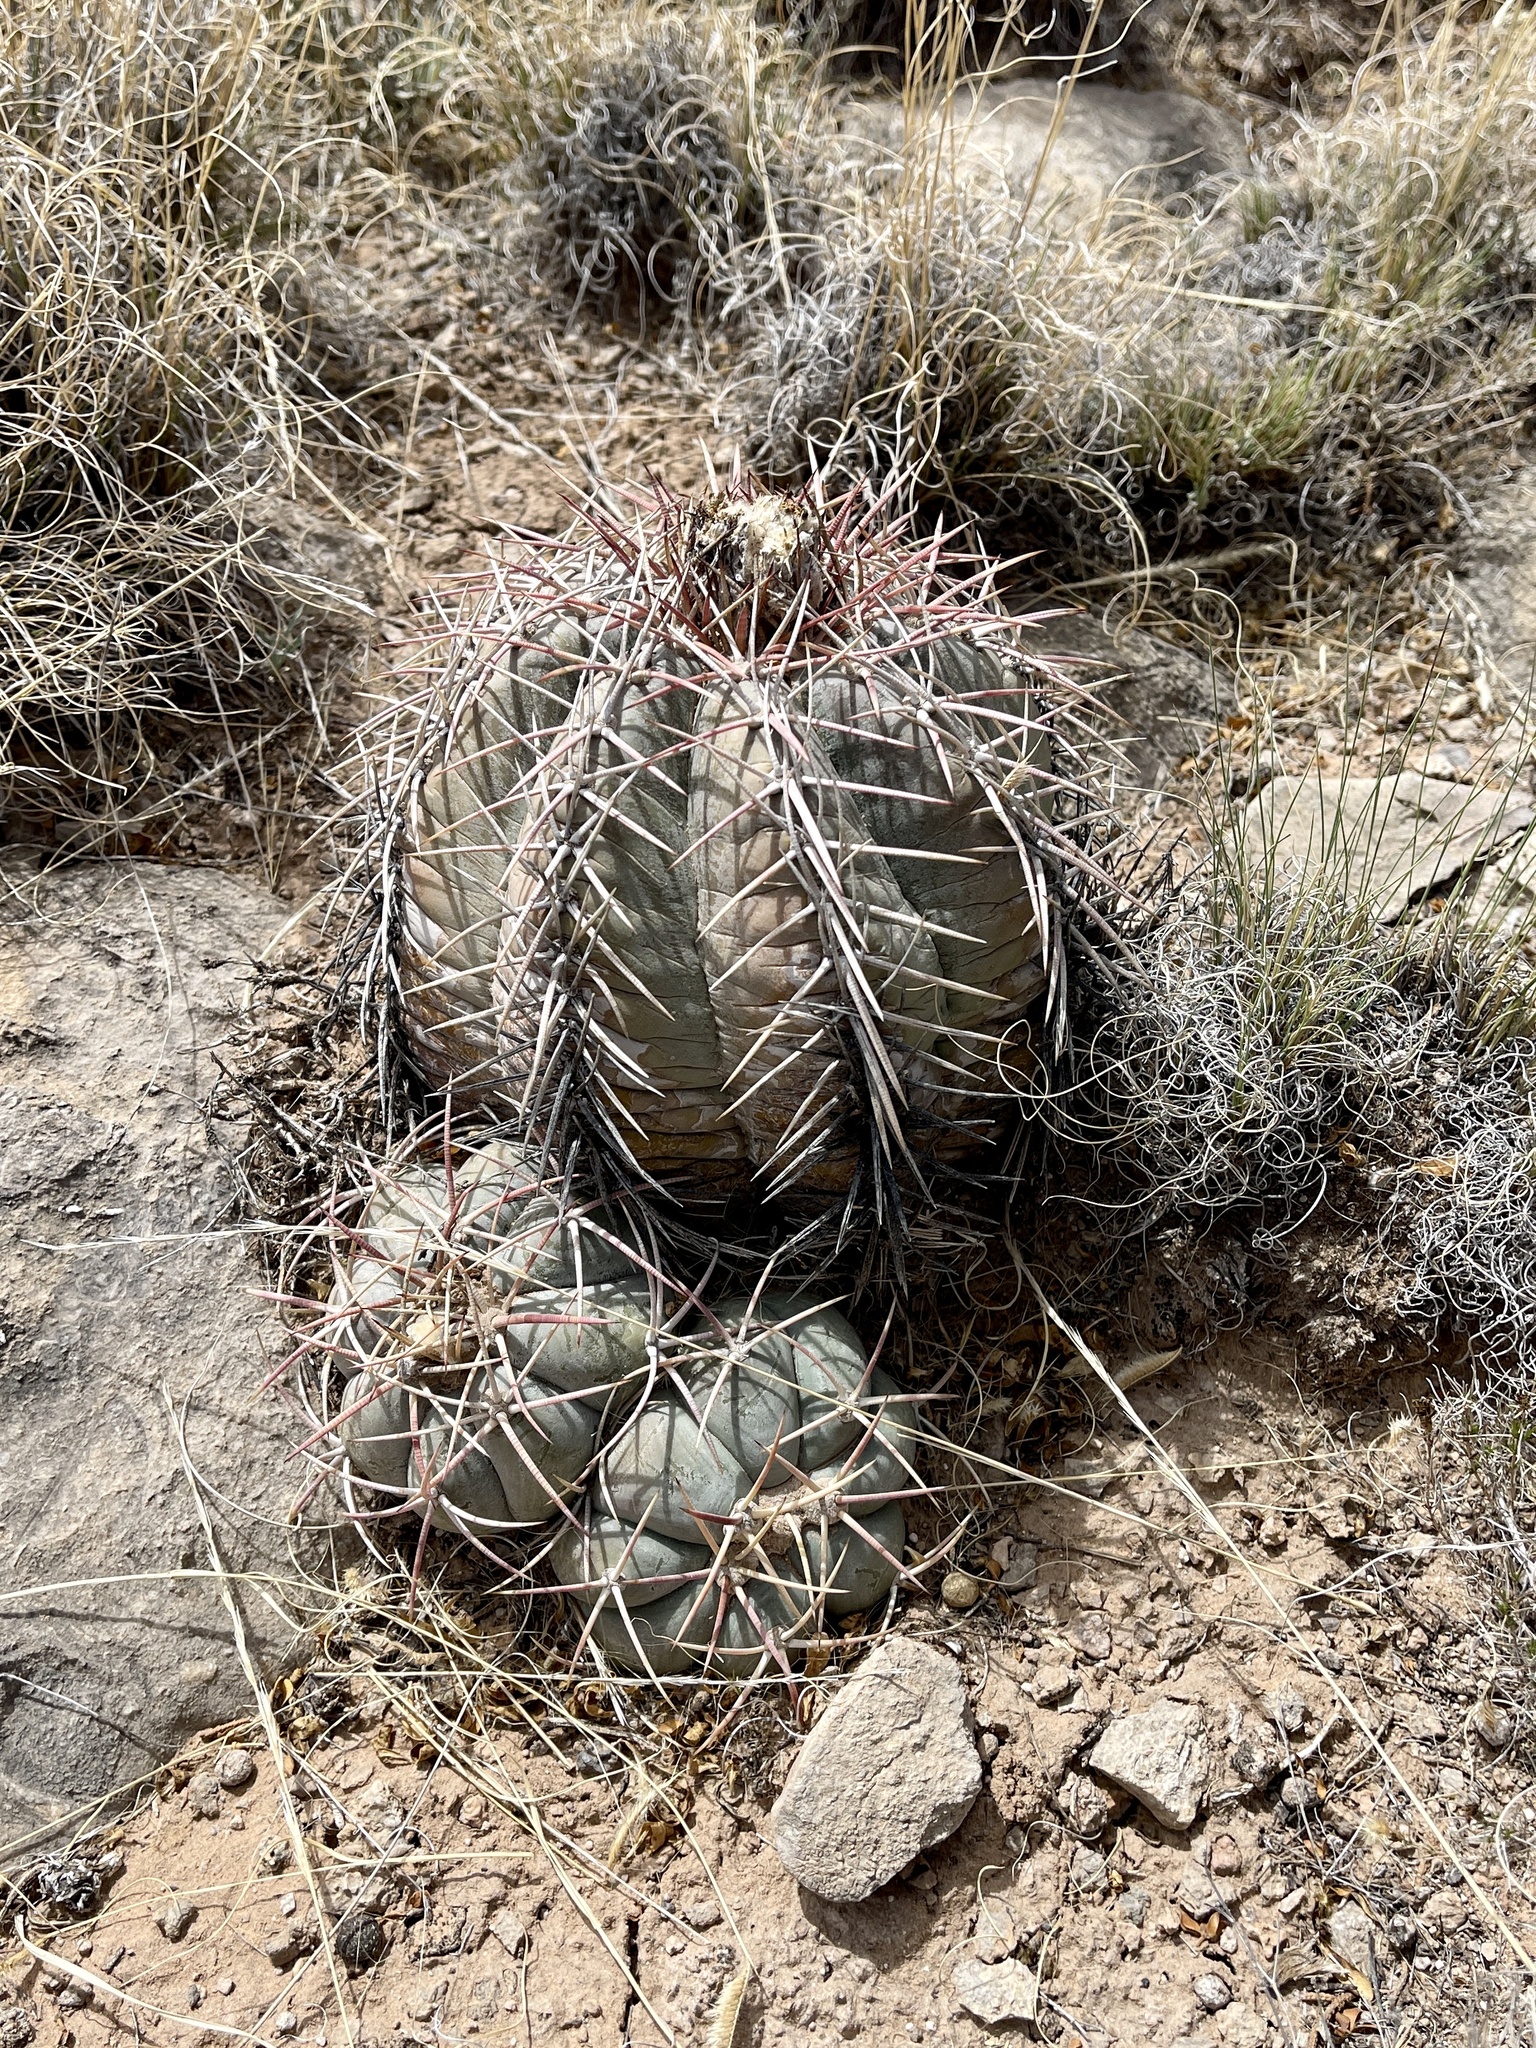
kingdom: Plantae
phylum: Tracheophyta
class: Magnoliopsida
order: Caryophyllales
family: Cactaceae
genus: Echinocactus
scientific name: Echinocactus horizonthalonius
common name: Devilshead
